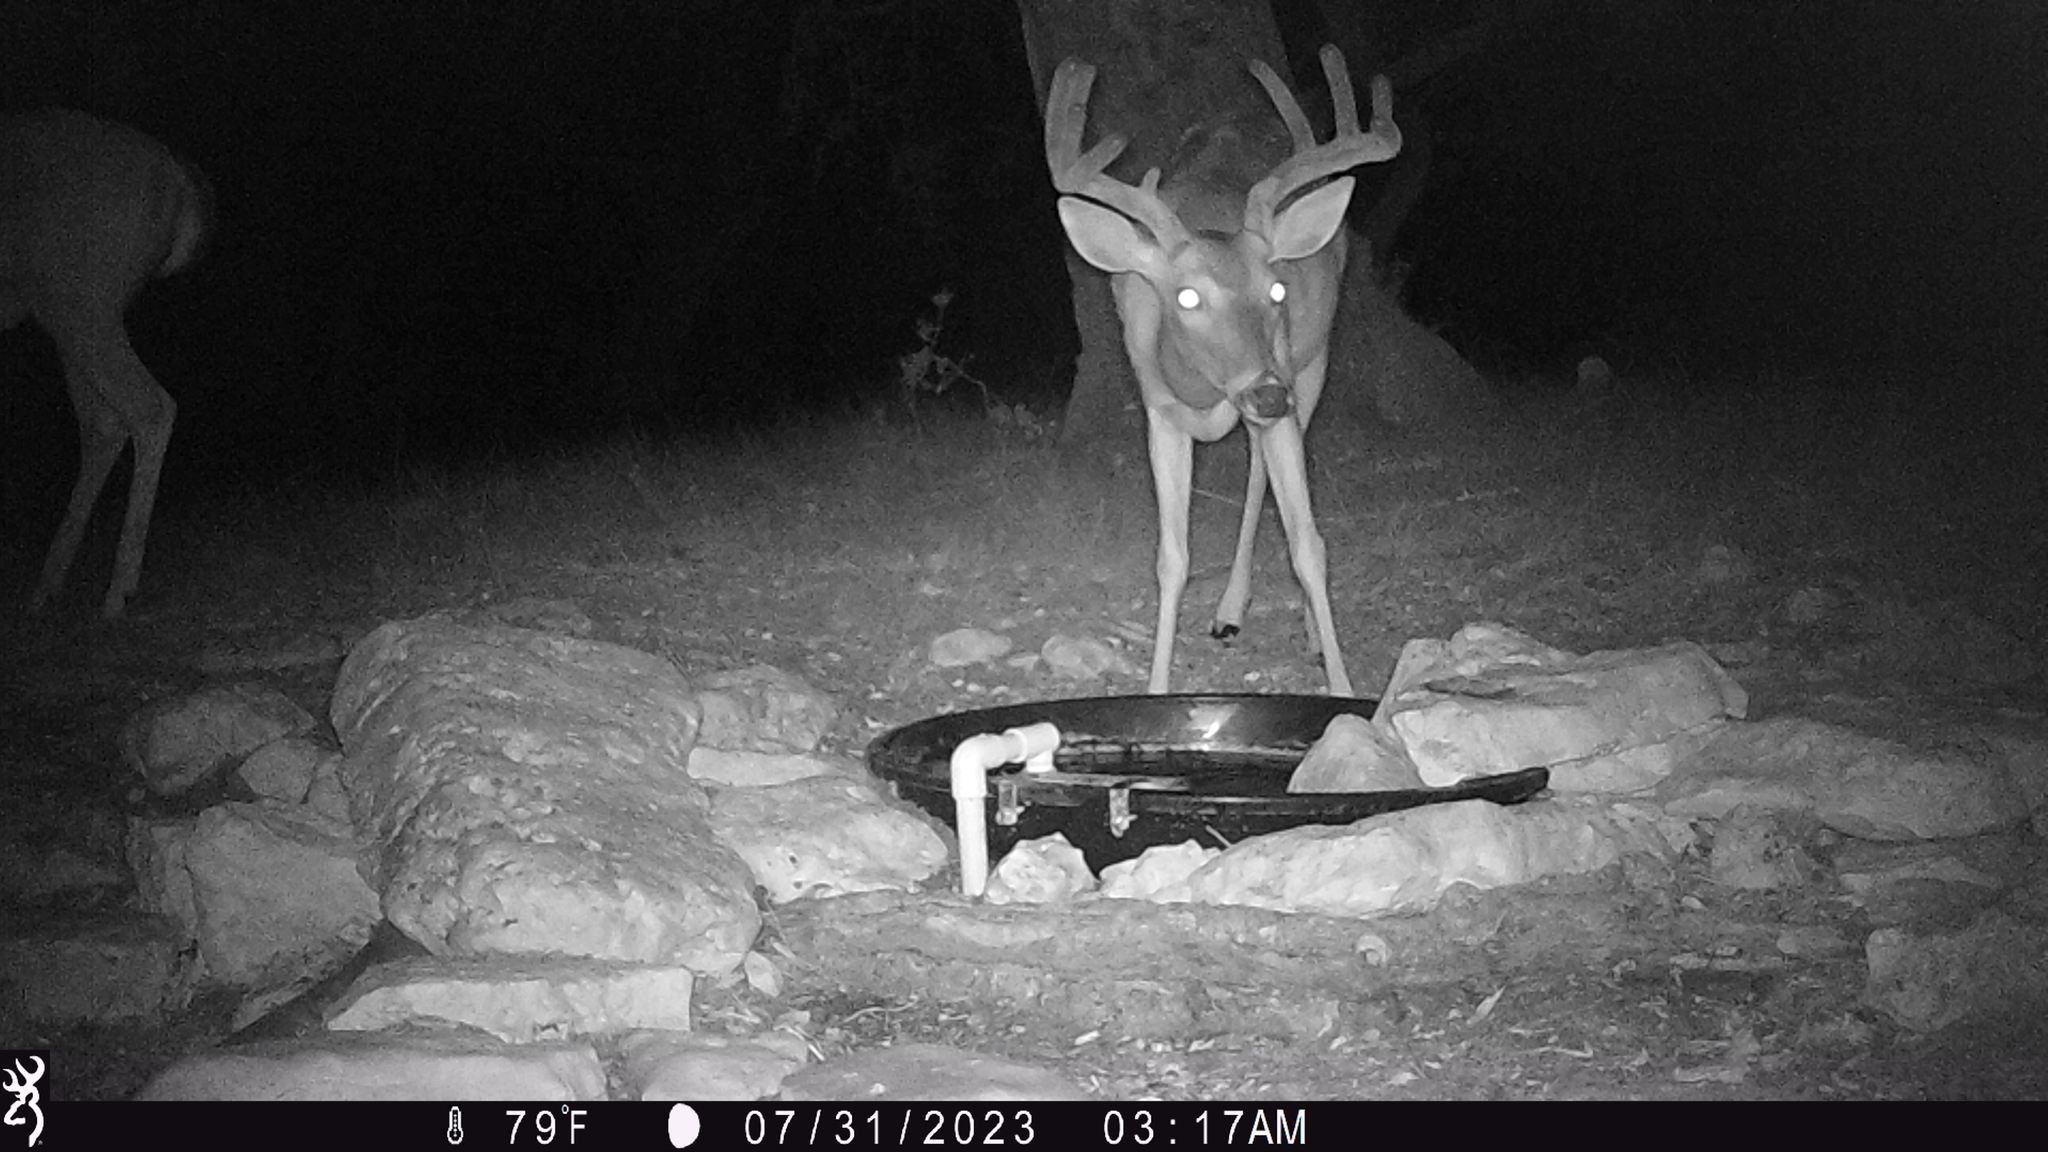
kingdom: Animalia
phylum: Chordata
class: Mammalia
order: Artiodactyla
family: Cervidae
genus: Odocoileus
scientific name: Odocoileus virginianus
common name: White-tailed deer
